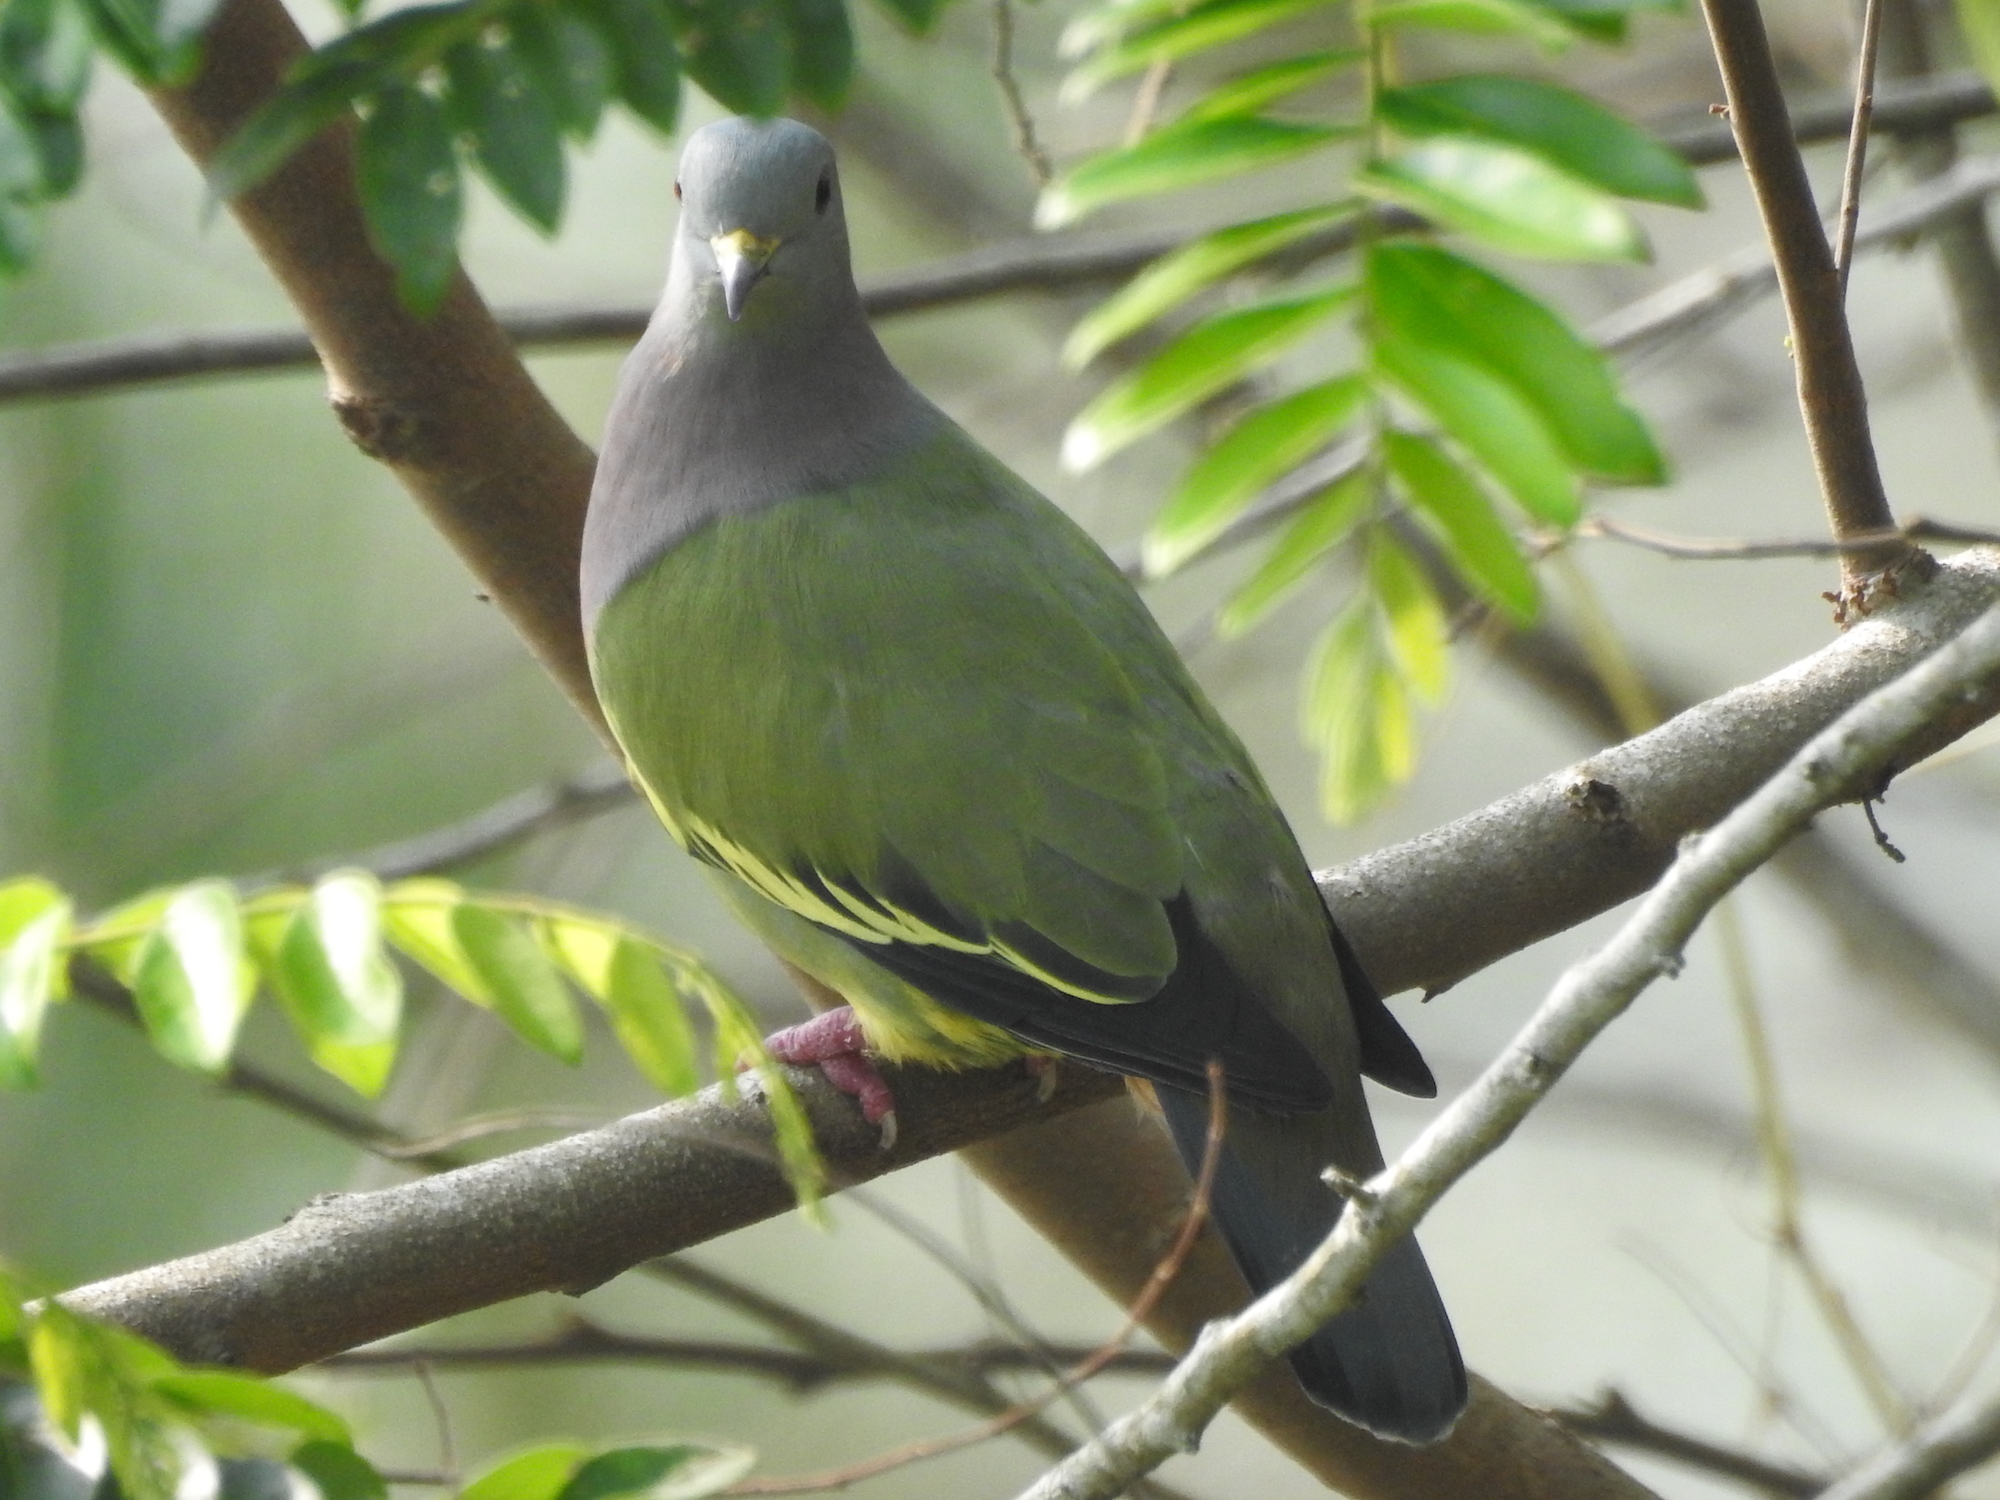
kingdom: Animalia
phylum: Chordata
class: Aves
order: Columbiformes
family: Columbidae
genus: Treron
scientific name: Treron vernans
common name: Pink-necked green pigeon
